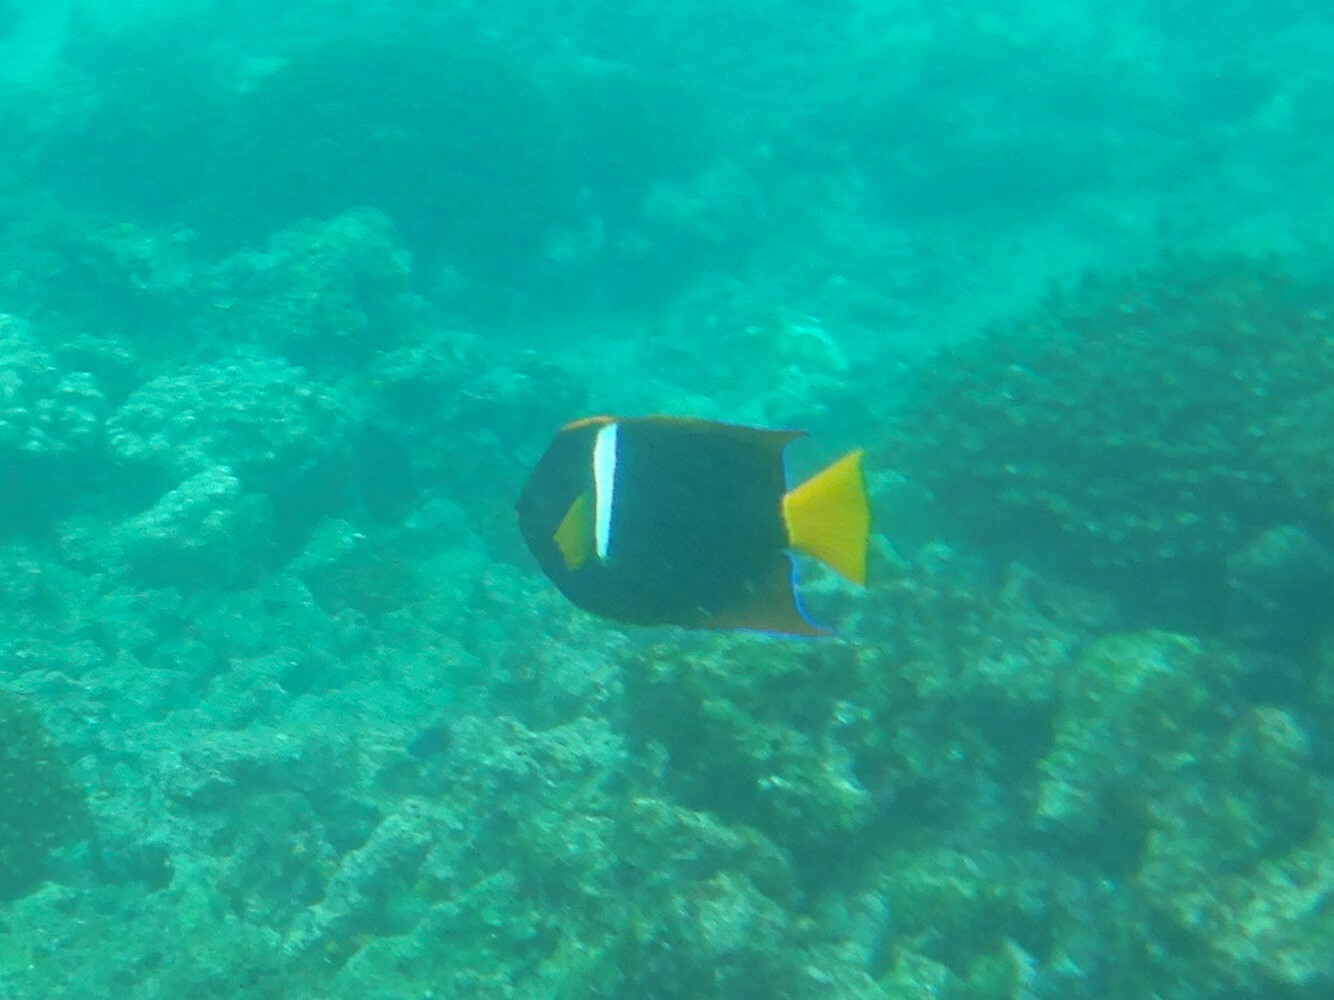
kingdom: Animalia
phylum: Chordata
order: Perciformes
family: Pomacanthidae
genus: Holacanthus
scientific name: Holacanthus passer
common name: King angelfish
